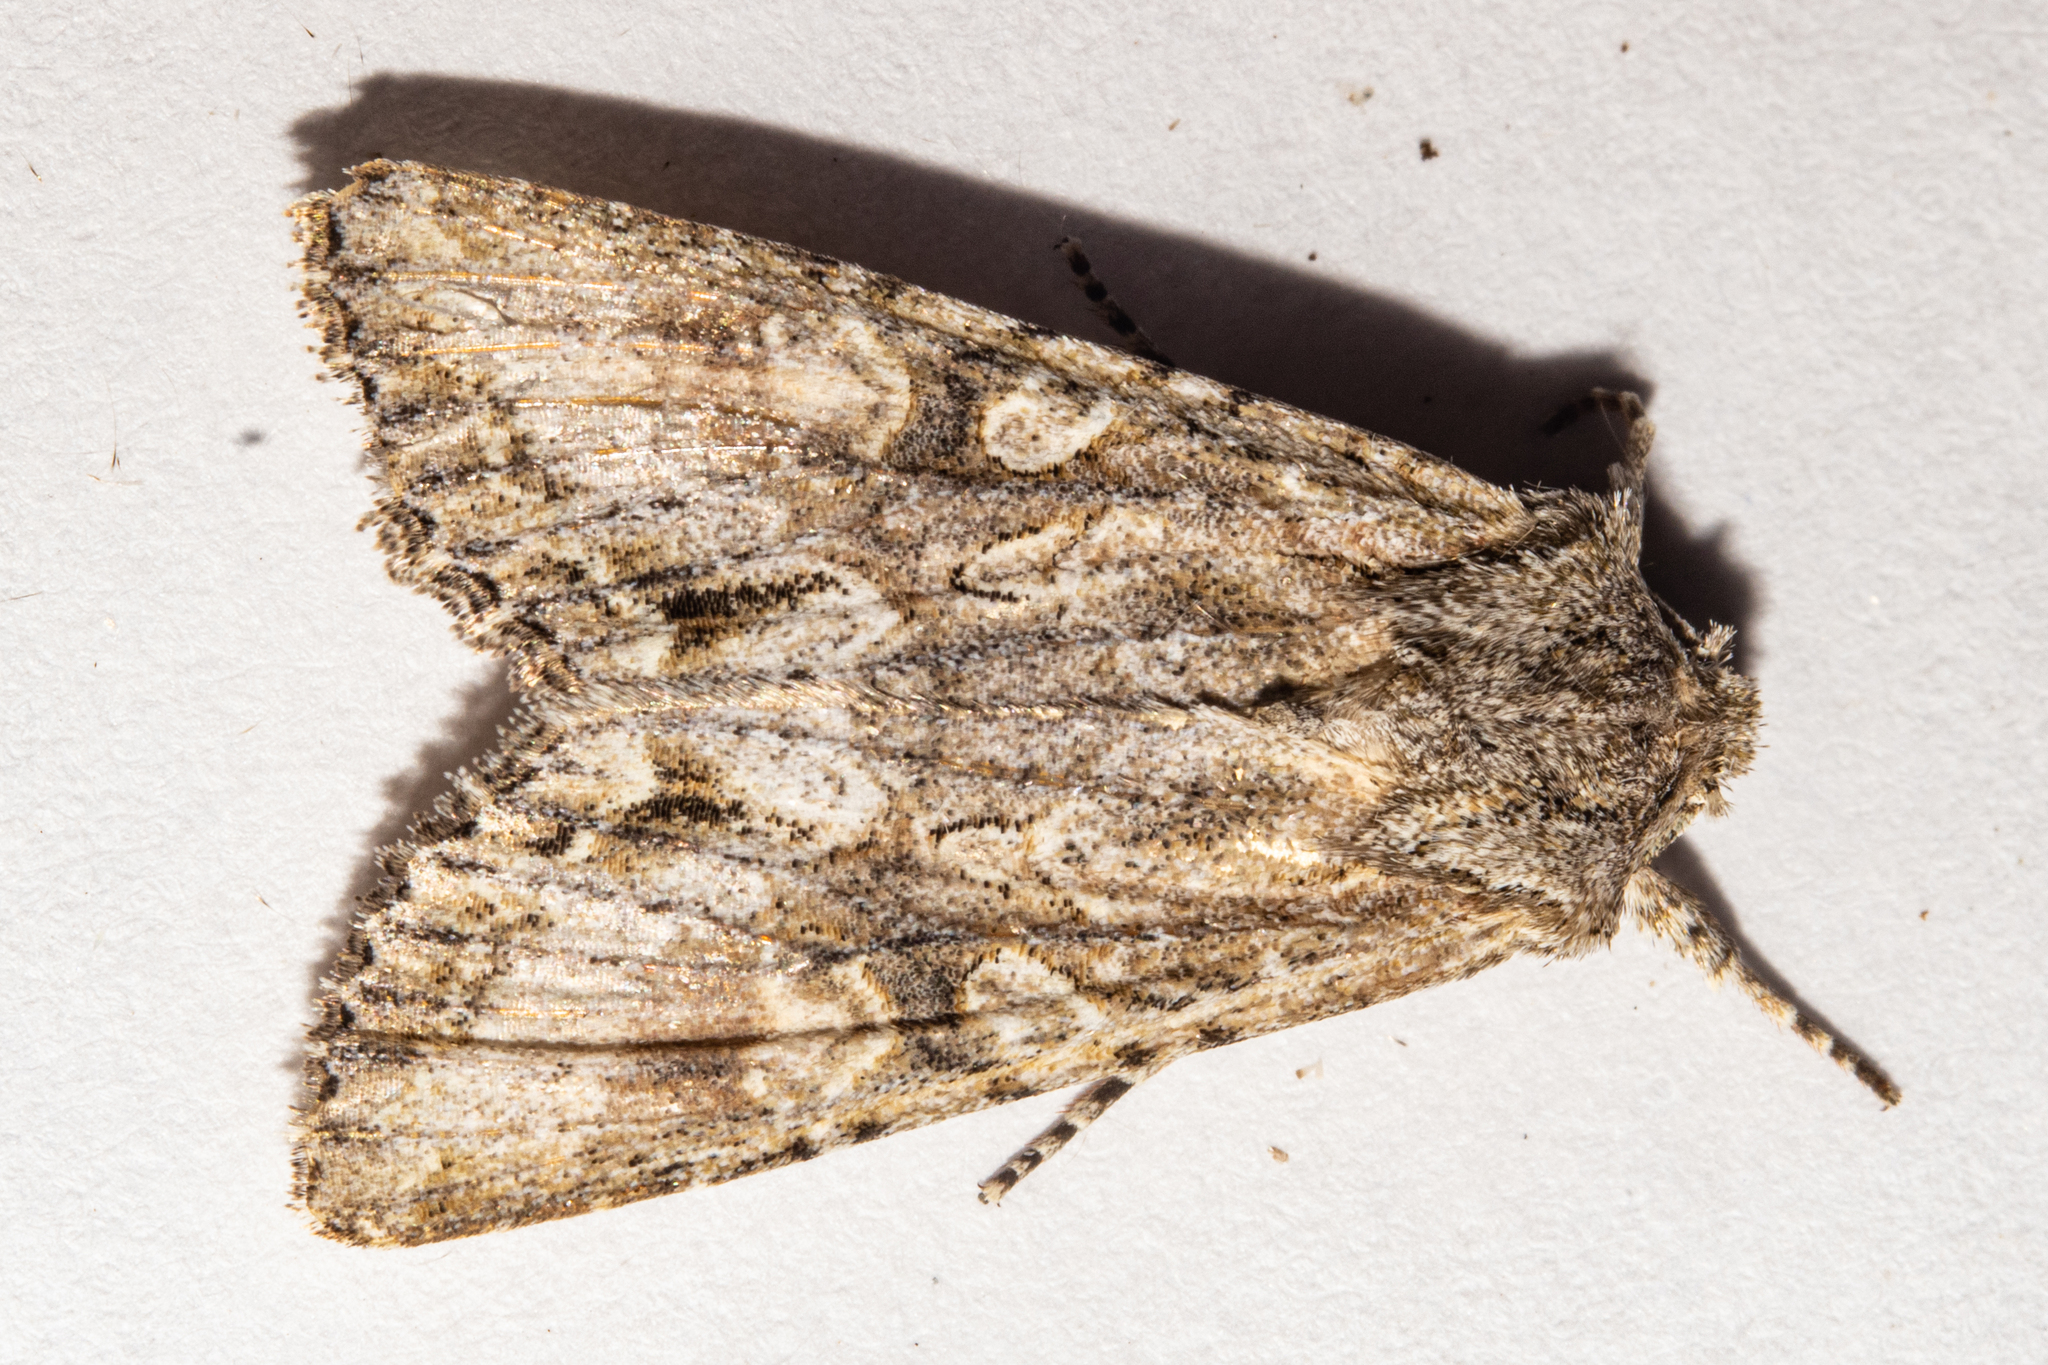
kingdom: Animalia
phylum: Arthropoda
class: Insecta
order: Lepidoptera
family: Noctuidae
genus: Ichneutica
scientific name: Ichneutica mutans
